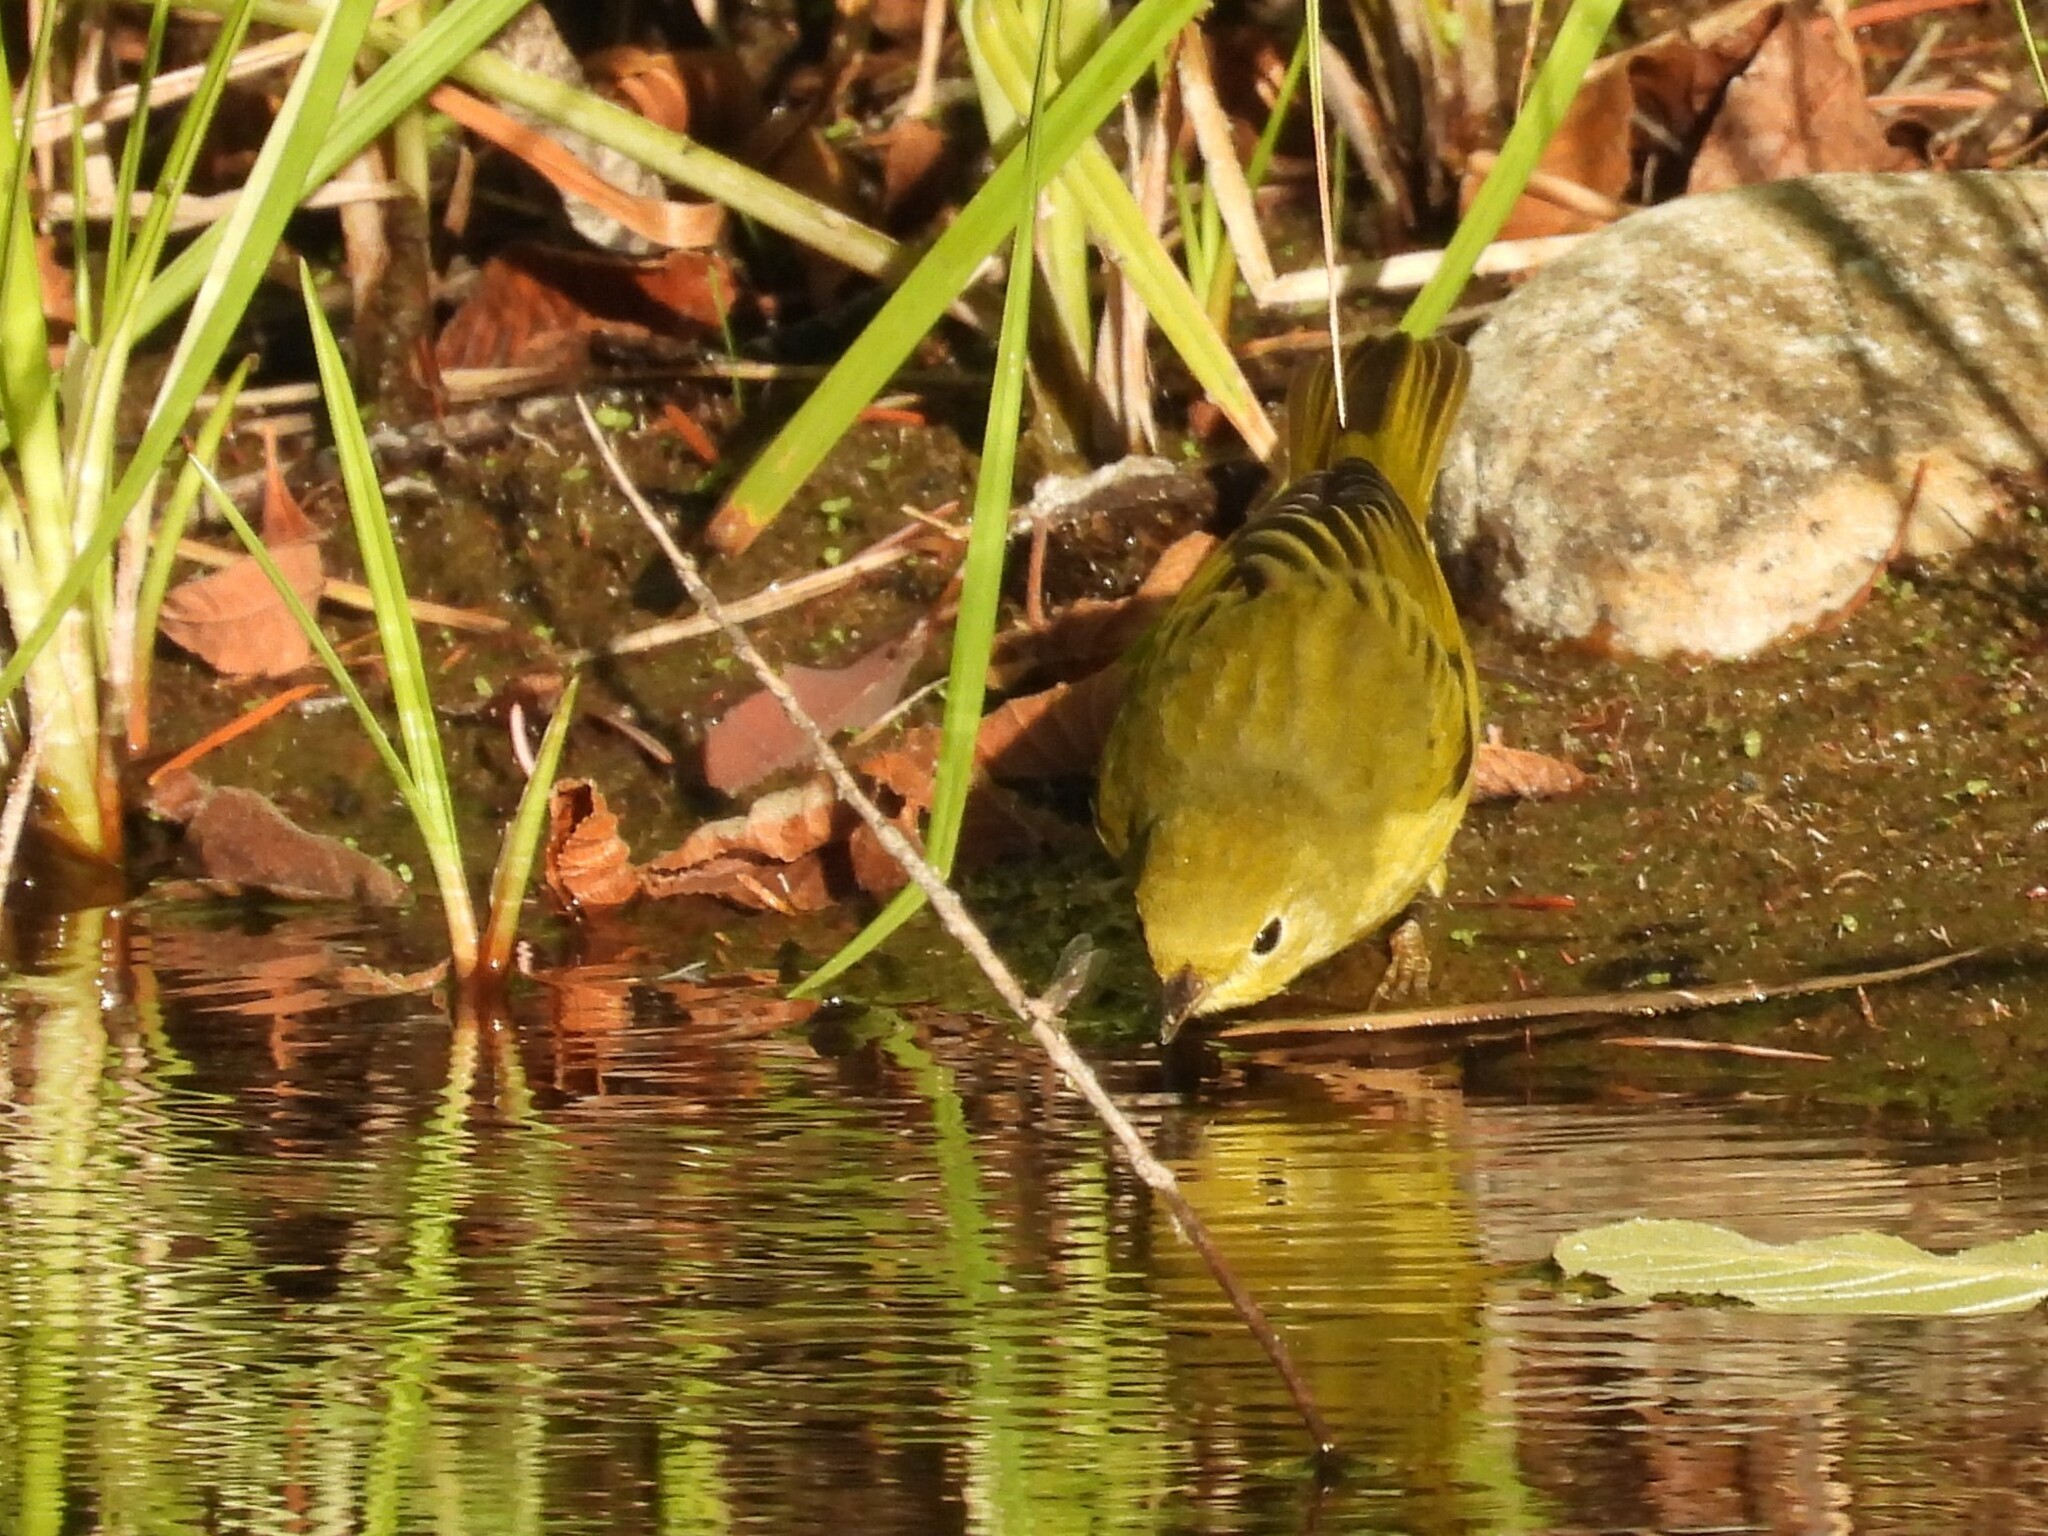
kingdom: Animalia
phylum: Chordata
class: Aves
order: Passeriformes
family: Parulidae
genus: Setophaga
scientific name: Setophaga petechia
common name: Yellow warbler
